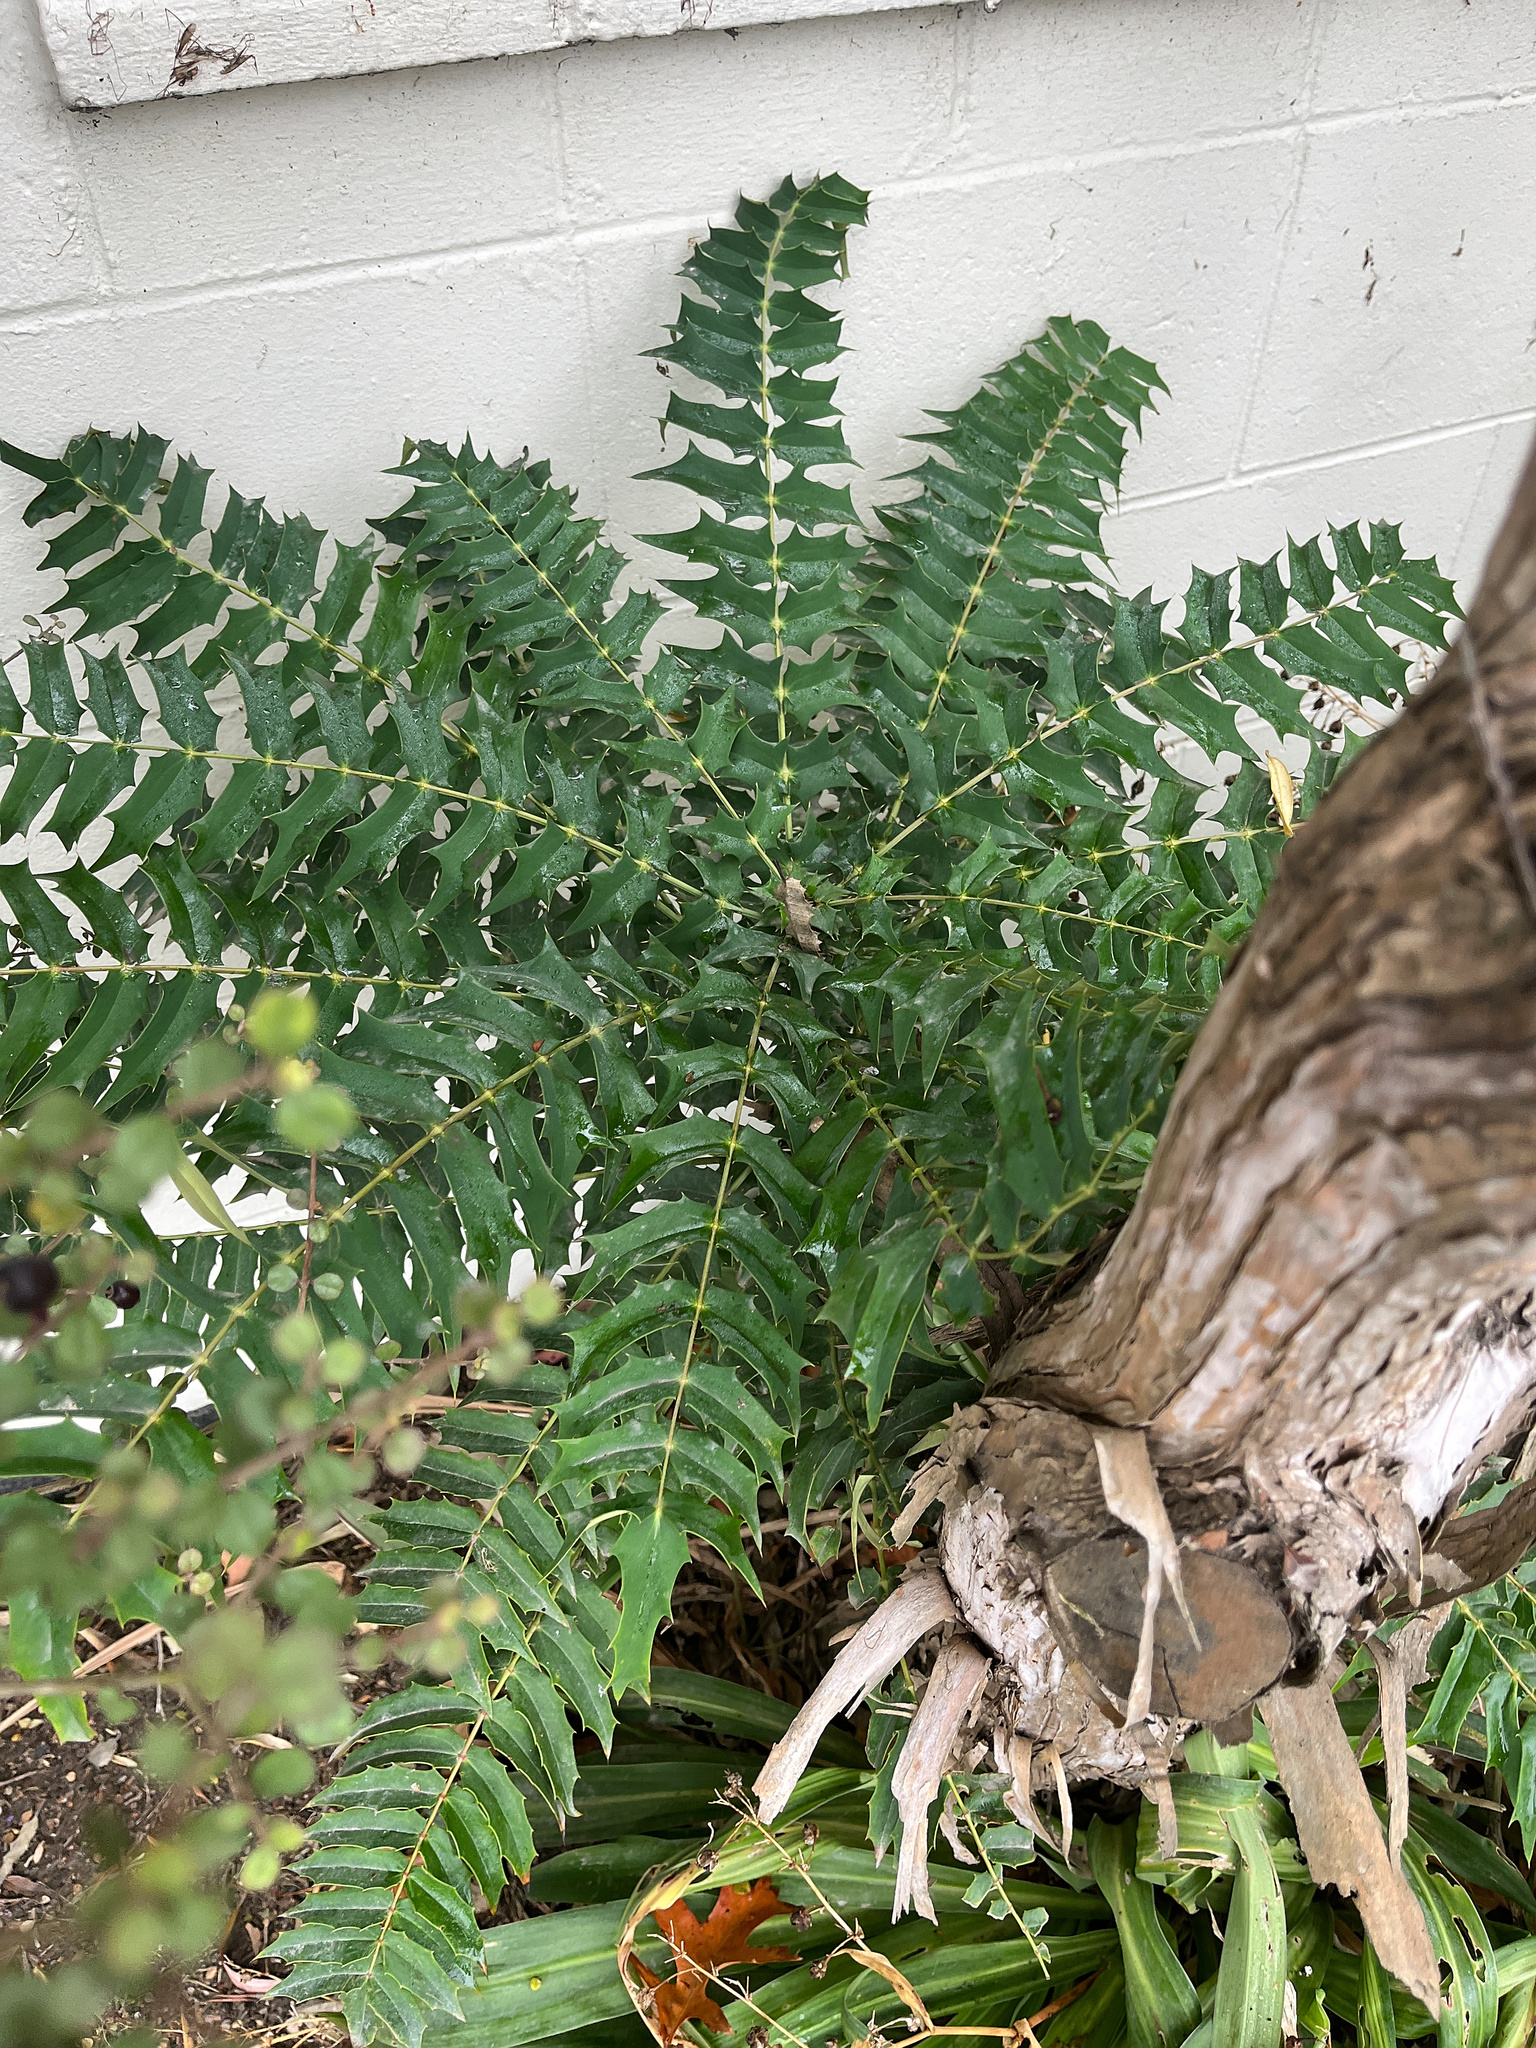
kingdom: Plantae
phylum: Tracheophyta
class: Magnoliopsida
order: Ranunculales
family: Berberidaceae
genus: Mahonia
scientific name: Mahonia oiwakensis
